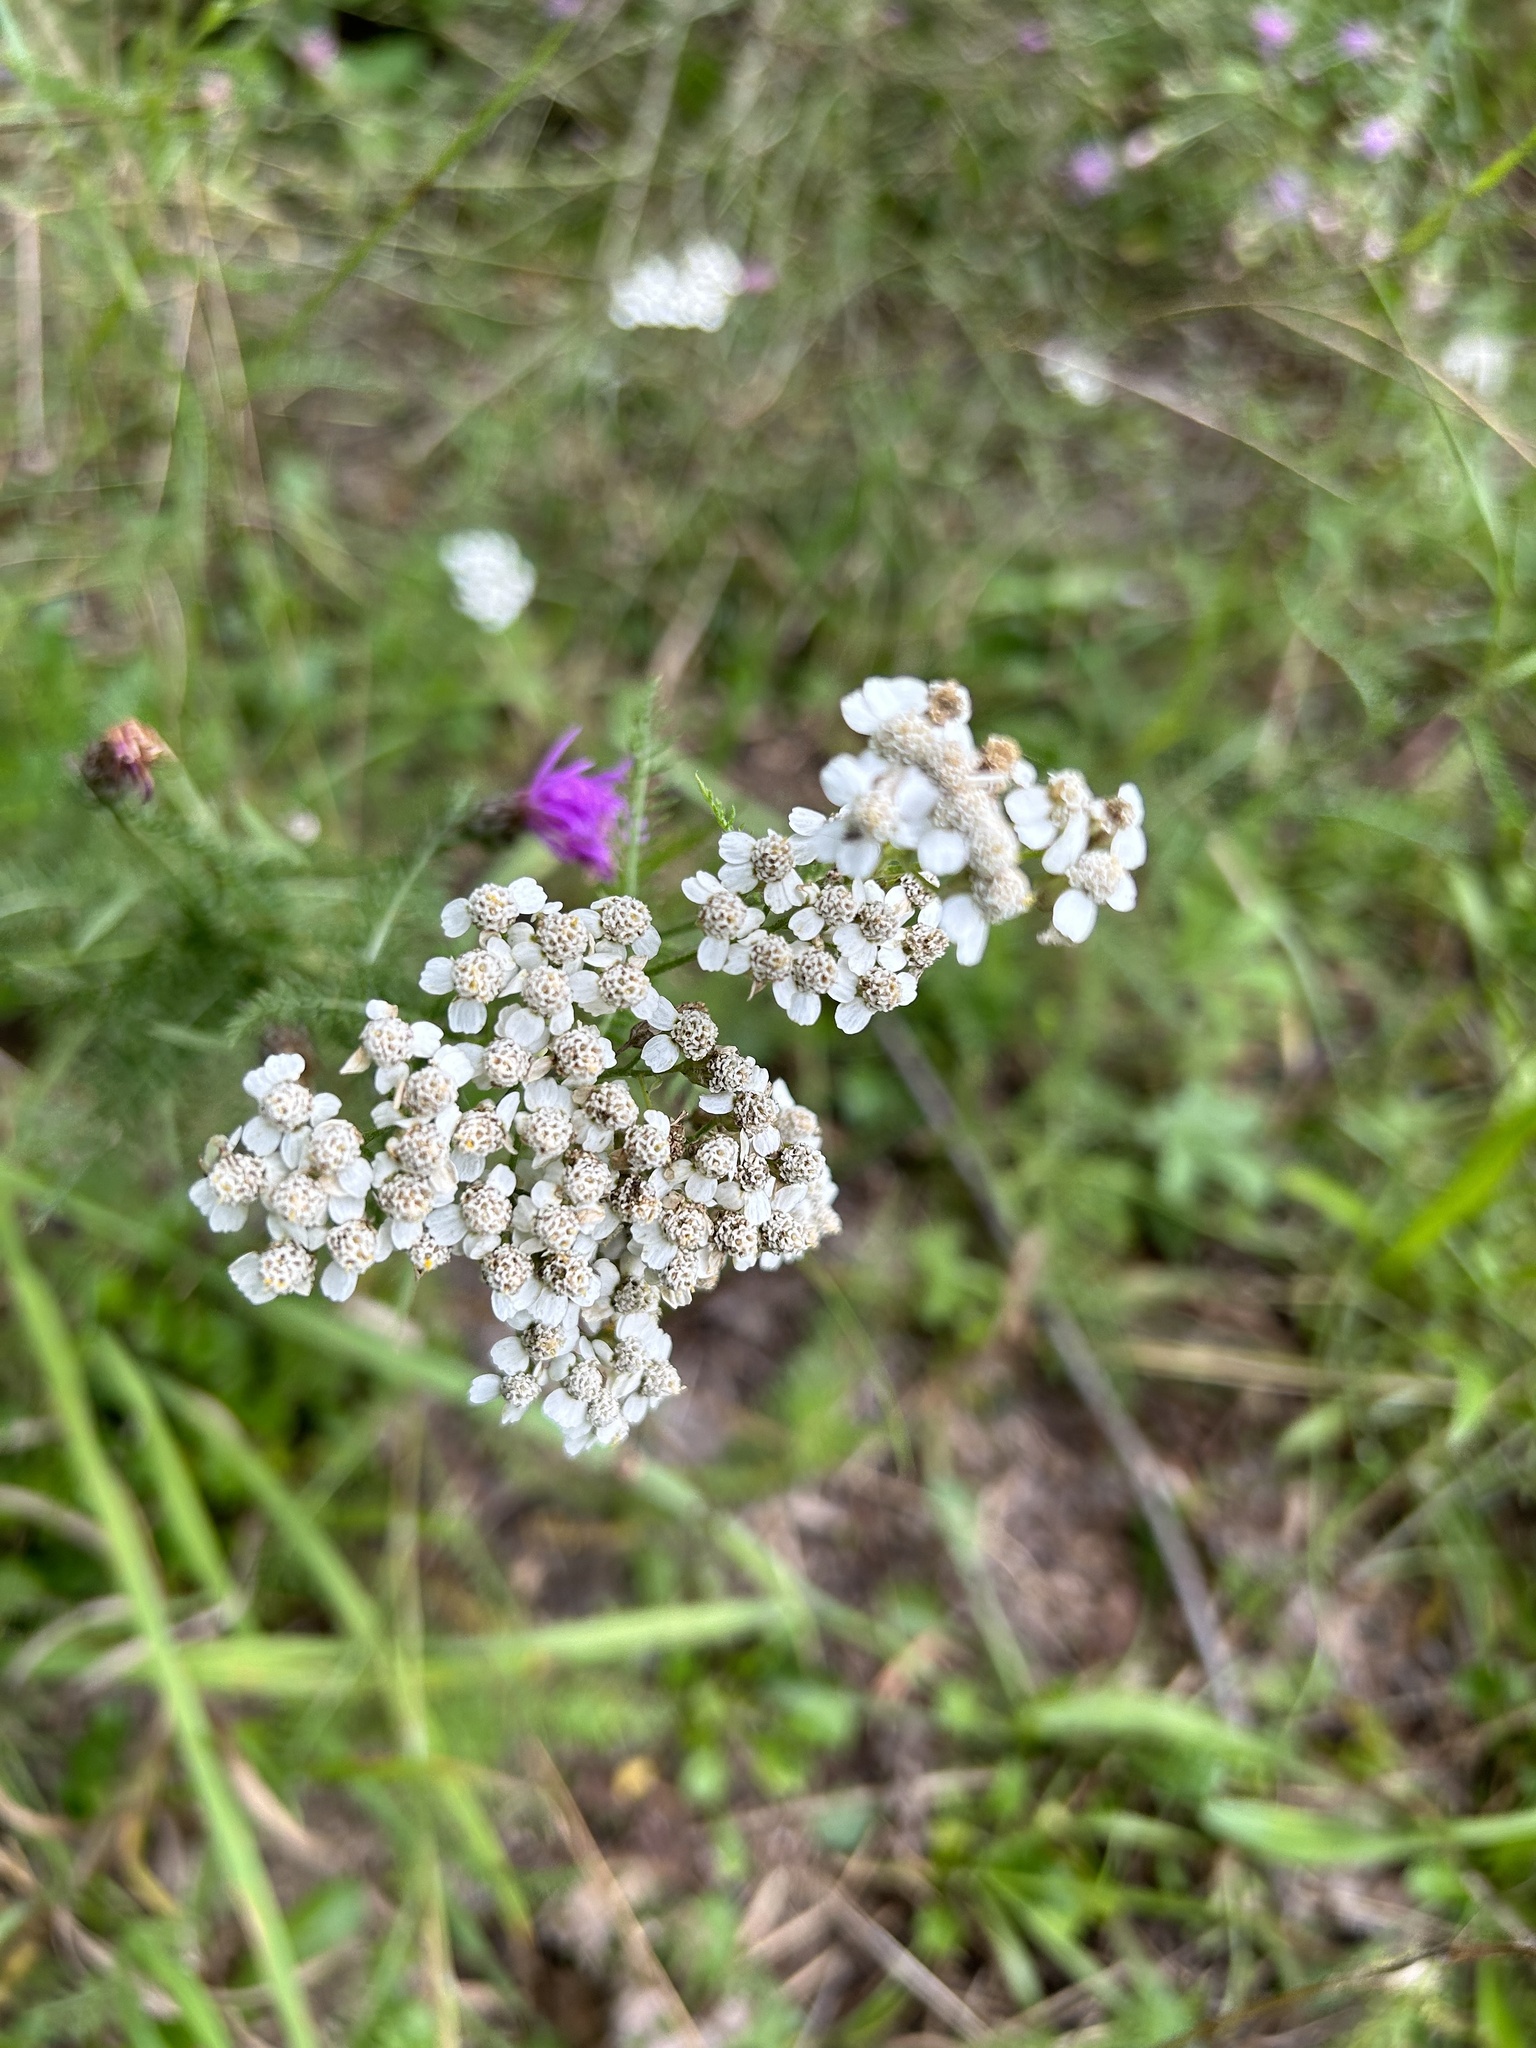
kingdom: Plantae
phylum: Tracheophyta
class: Magnoliopsida
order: Asterales
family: Asteraceae
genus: Achillea
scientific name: Achillea millefolium
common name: Yarrow
